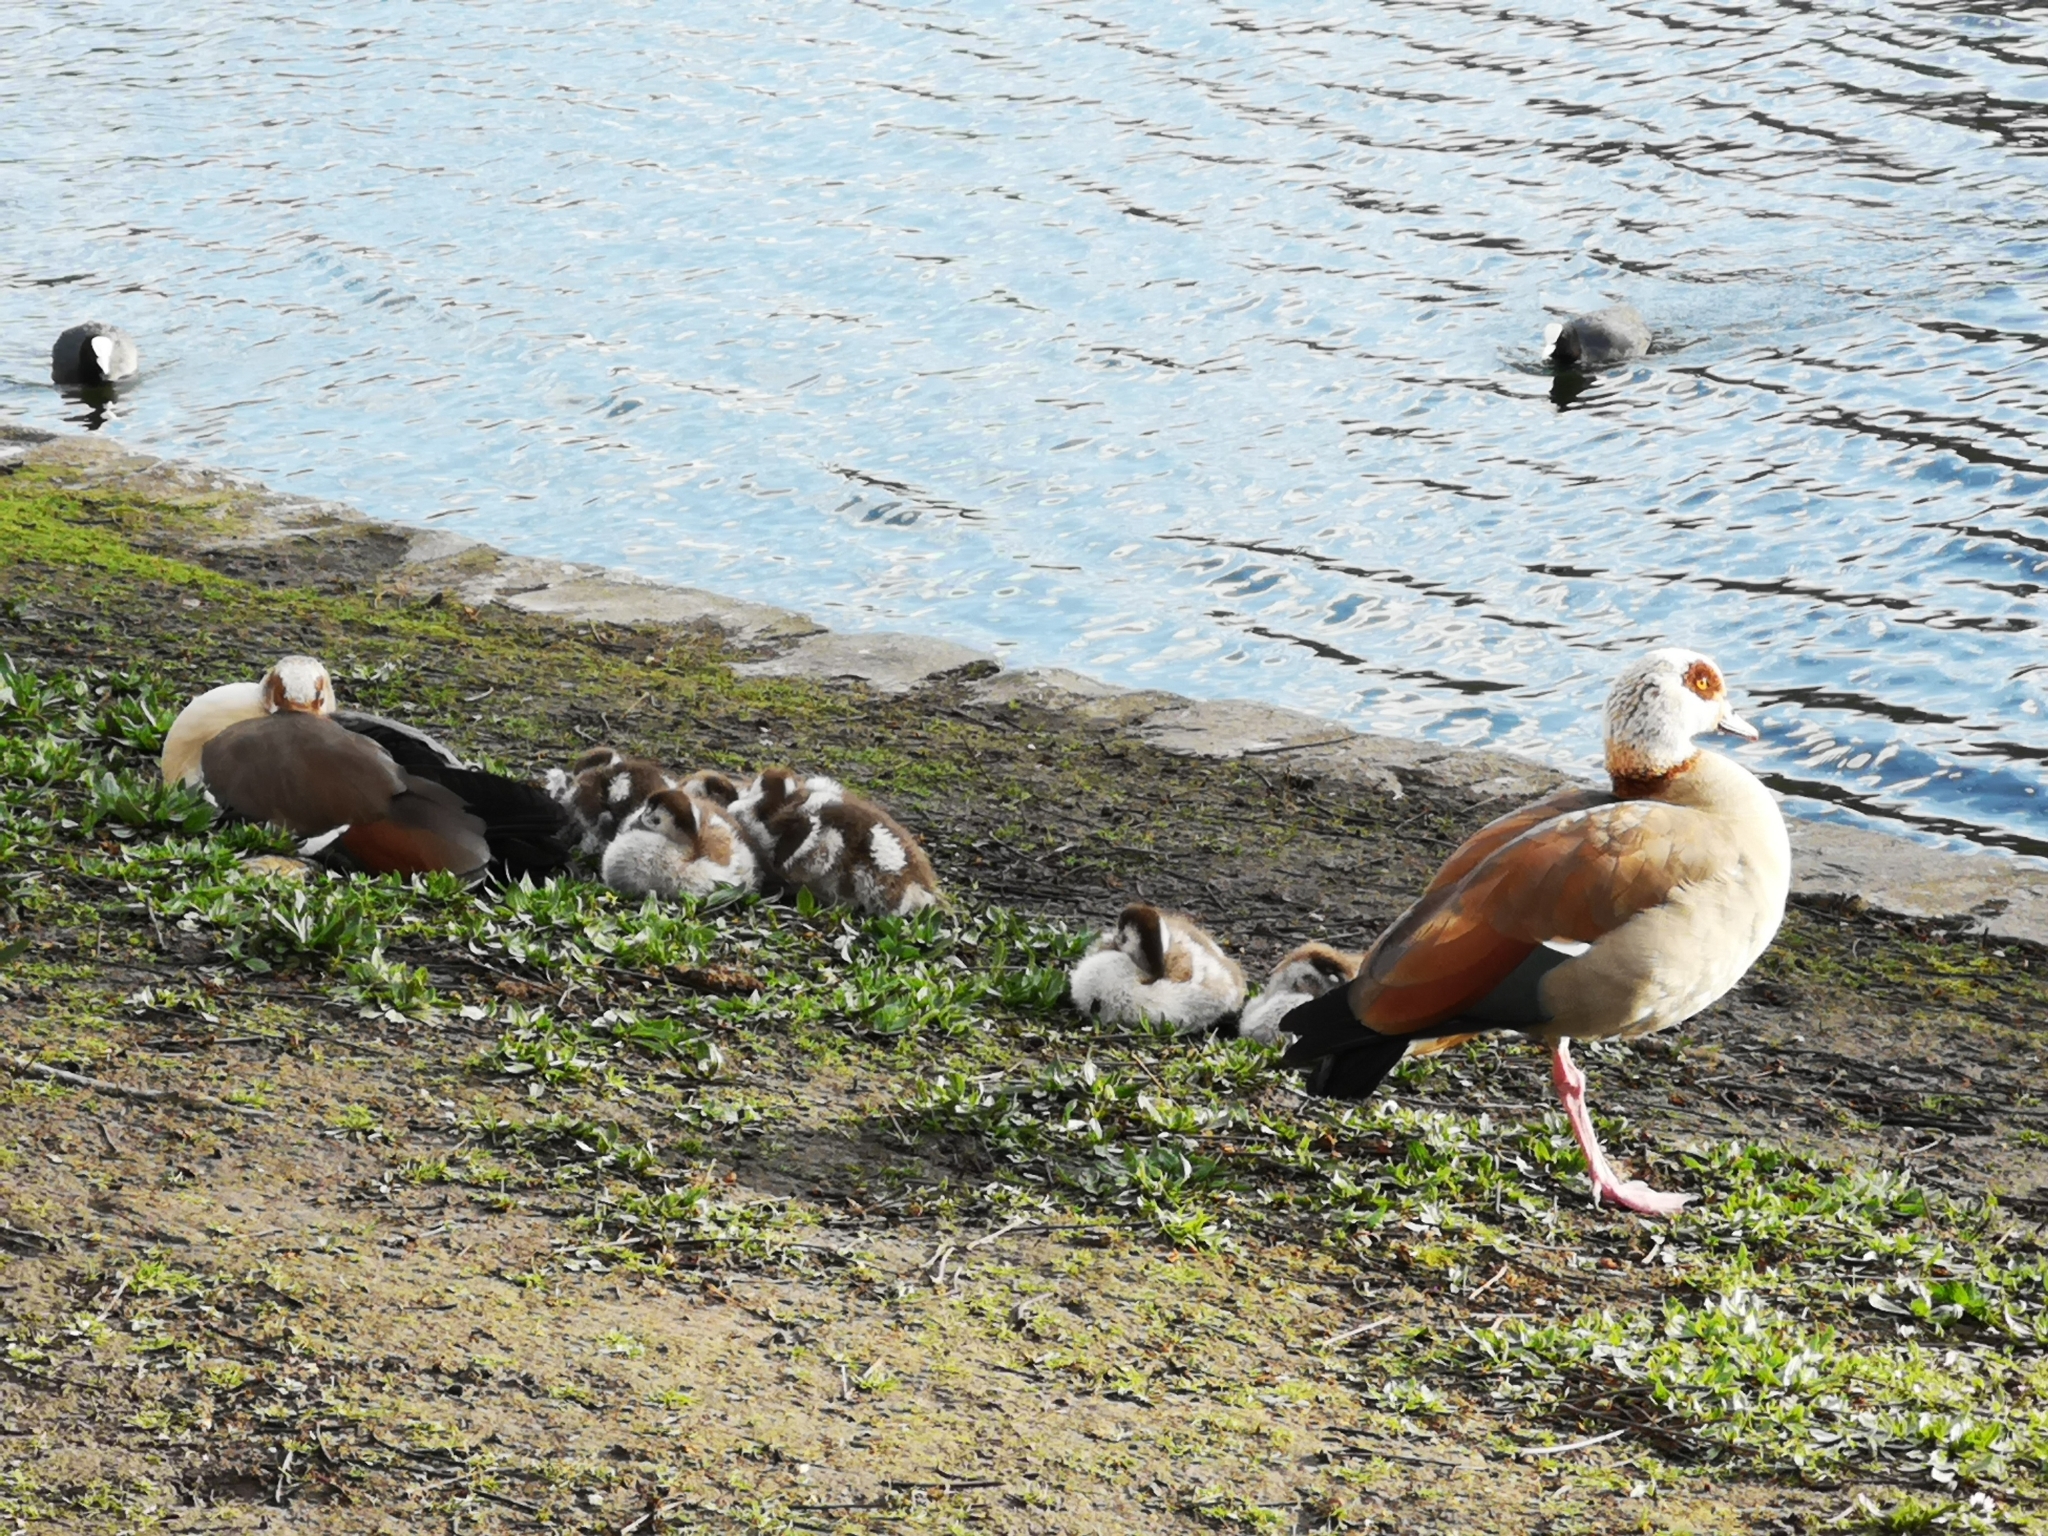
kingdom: Animalia
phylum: Chordata
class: Aves
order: Anseriformes
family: Anatidae
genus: Alopochen
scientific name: Alopochen aegyptiaca
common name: Egyptian goose
